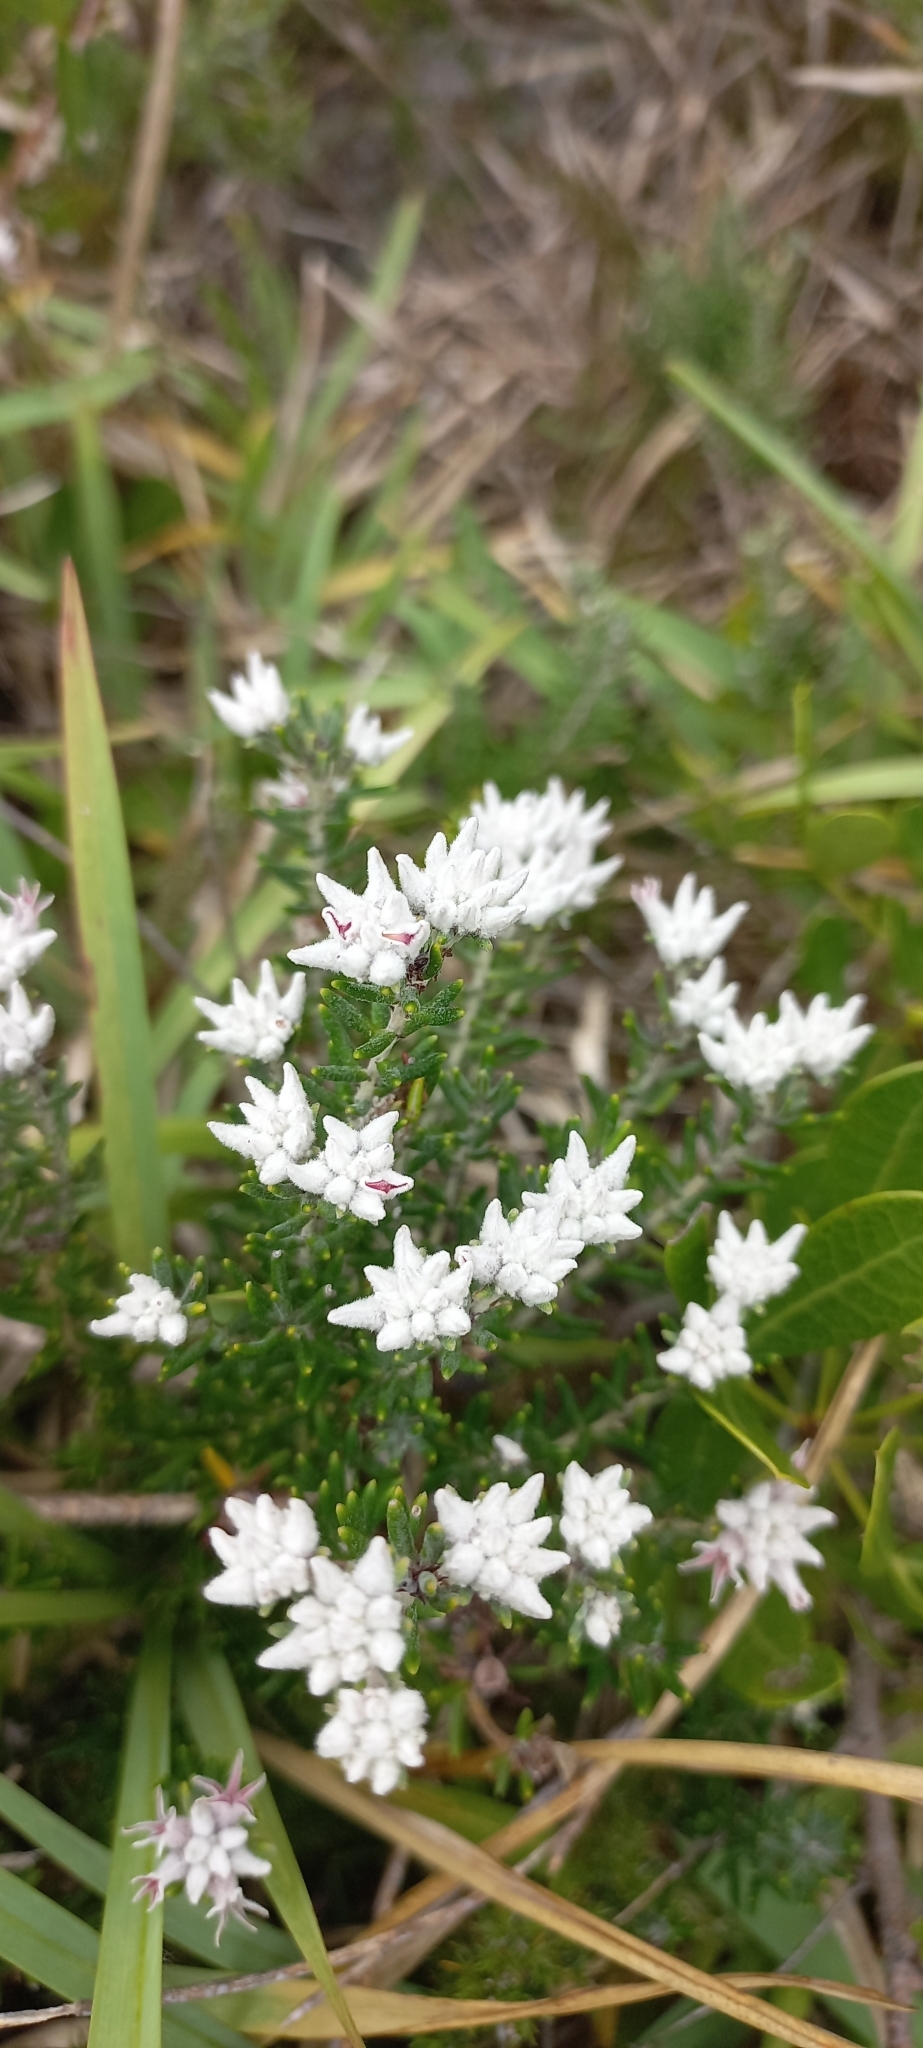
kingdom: Plantae
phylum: Tracheophyta
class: Magnoliopsida
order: Rosales
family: Rhamnaceae
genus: Trichocephalus
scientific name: Trichocephalus stipularis
